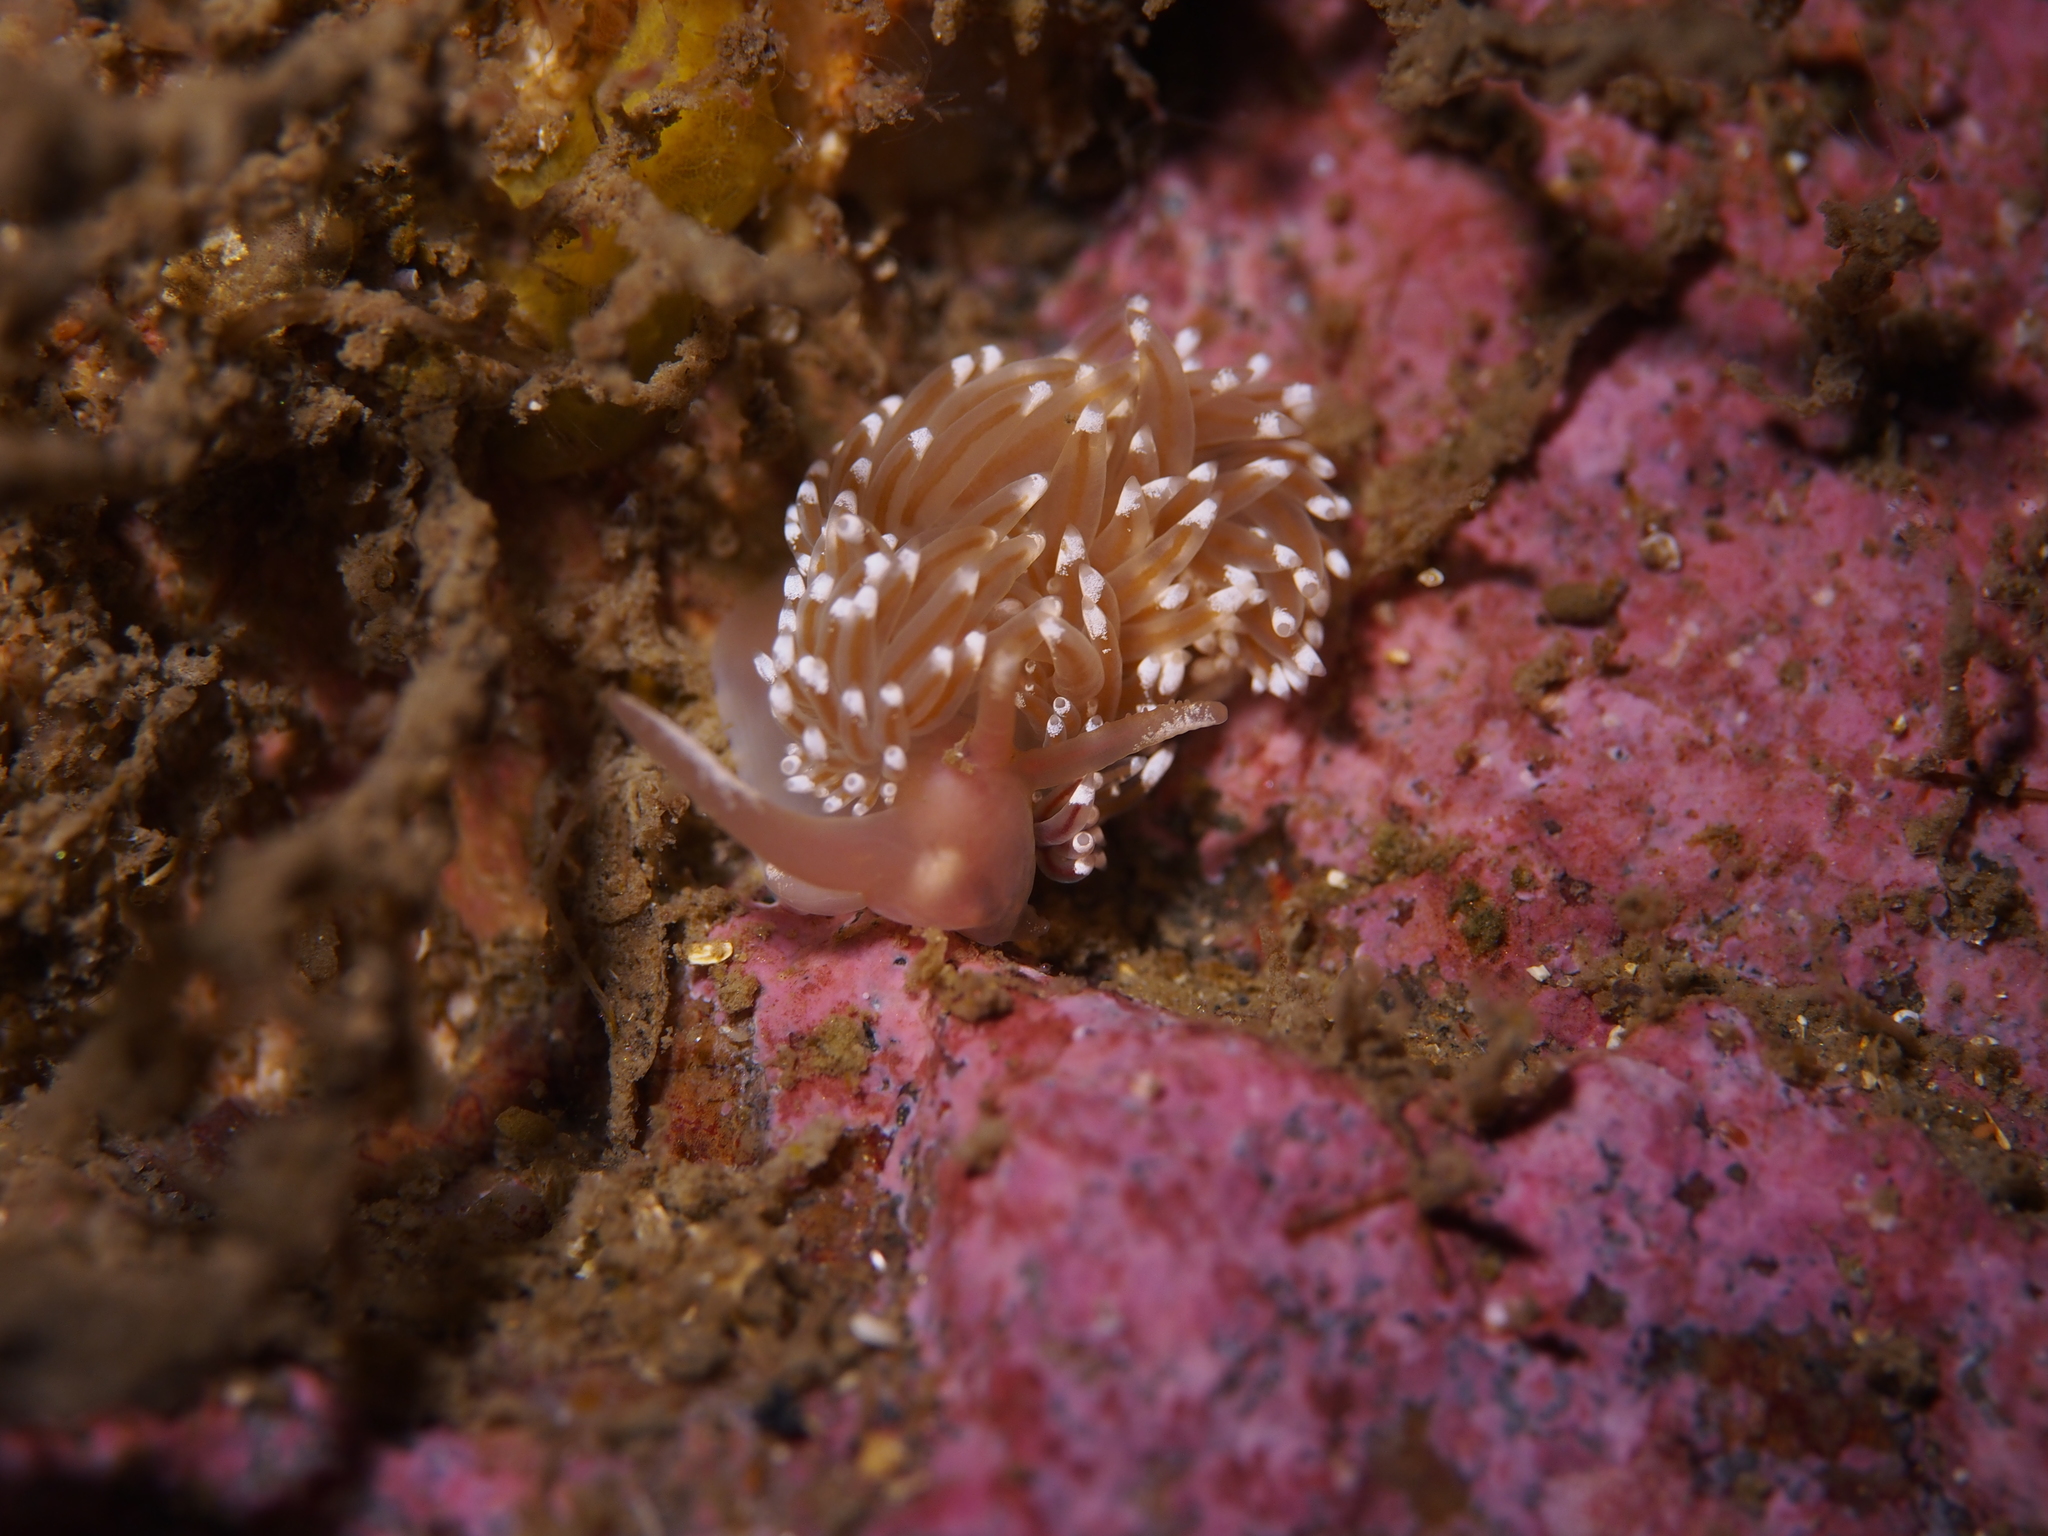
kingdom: Animalia
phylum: Mollusca
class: Gastropoda
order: Nudibranchia
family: Facelinidae
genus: Facelina
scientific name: Facelina bostoniensis
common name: Boston facelina
